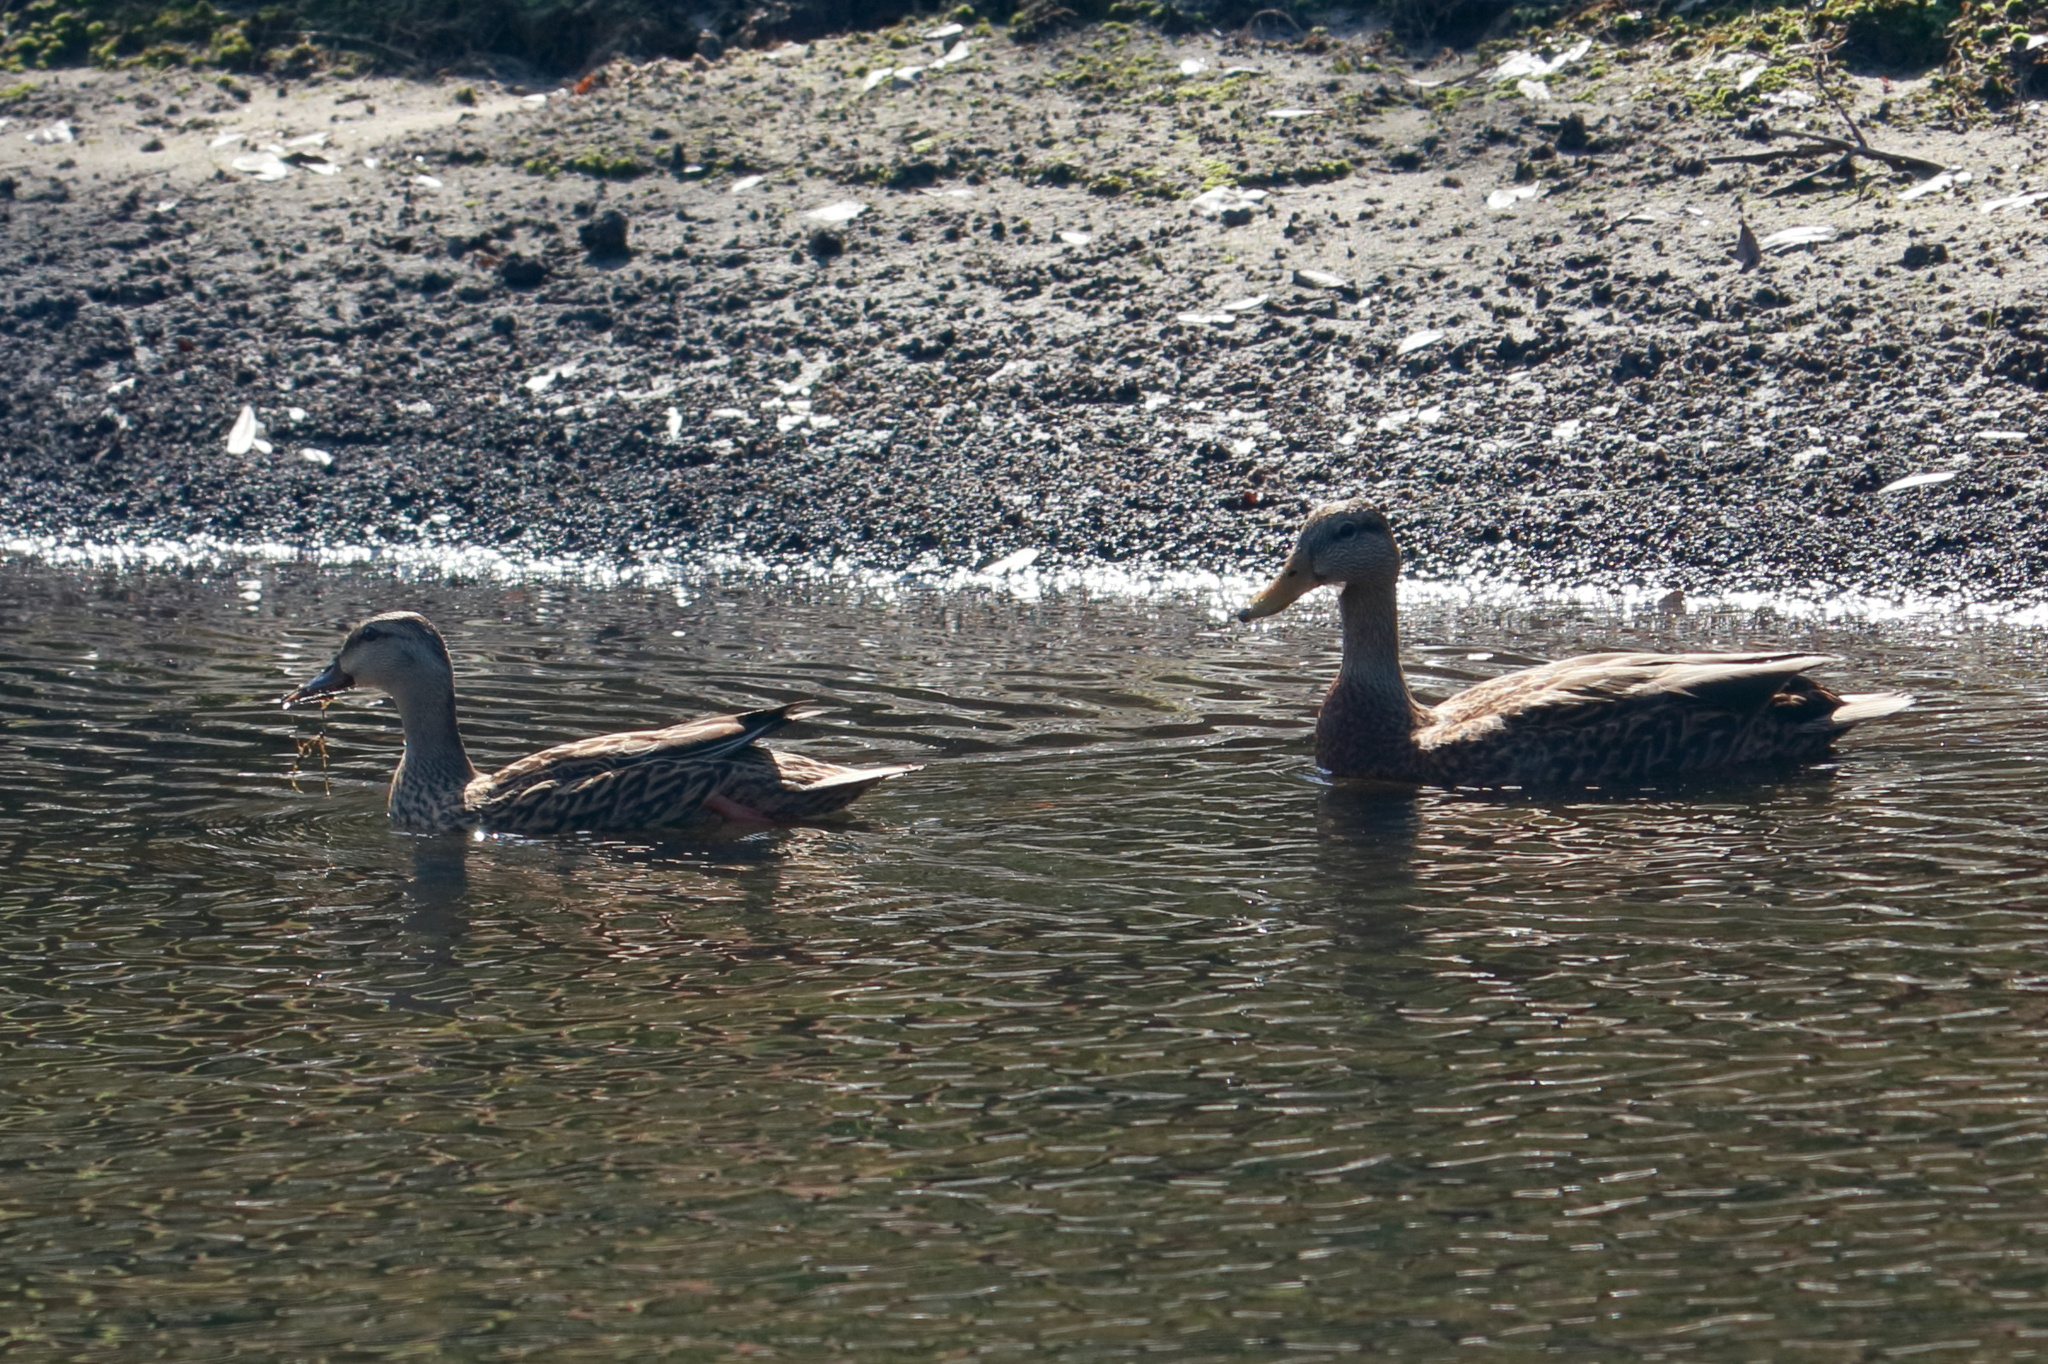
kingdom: Animalia
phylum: Chordata
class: Aves
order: Anseriformes
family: Anatidae
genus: Anas
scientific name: Anas
